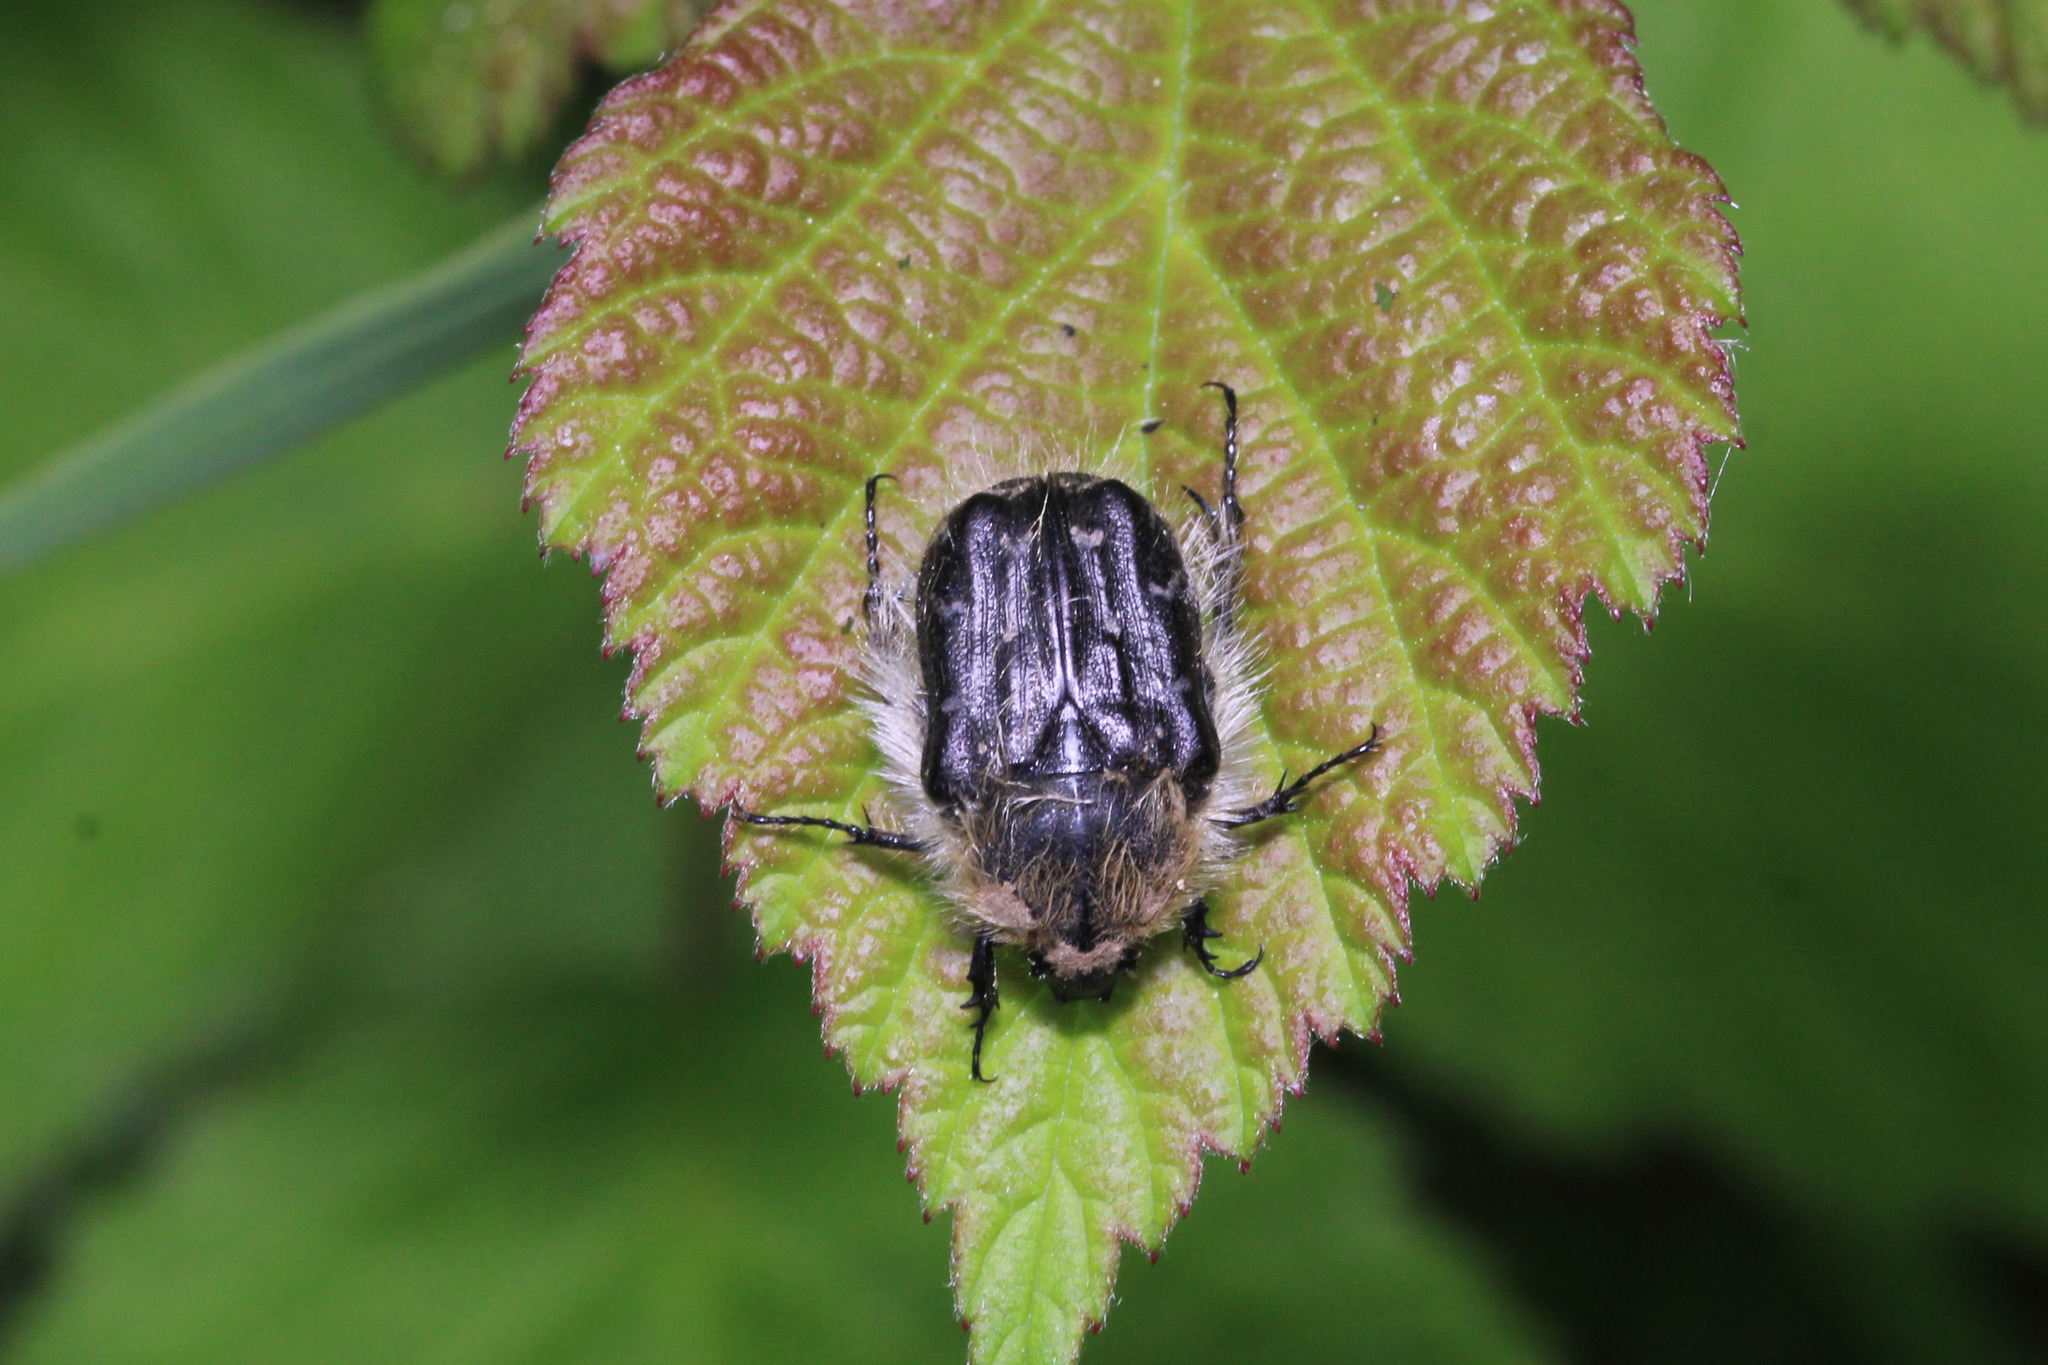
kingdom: Animalia
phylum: Arthropoda
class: Insecta
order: Coleoptera
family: Scarabaeidae
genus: Tropinota
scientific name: Tropinota hirta
